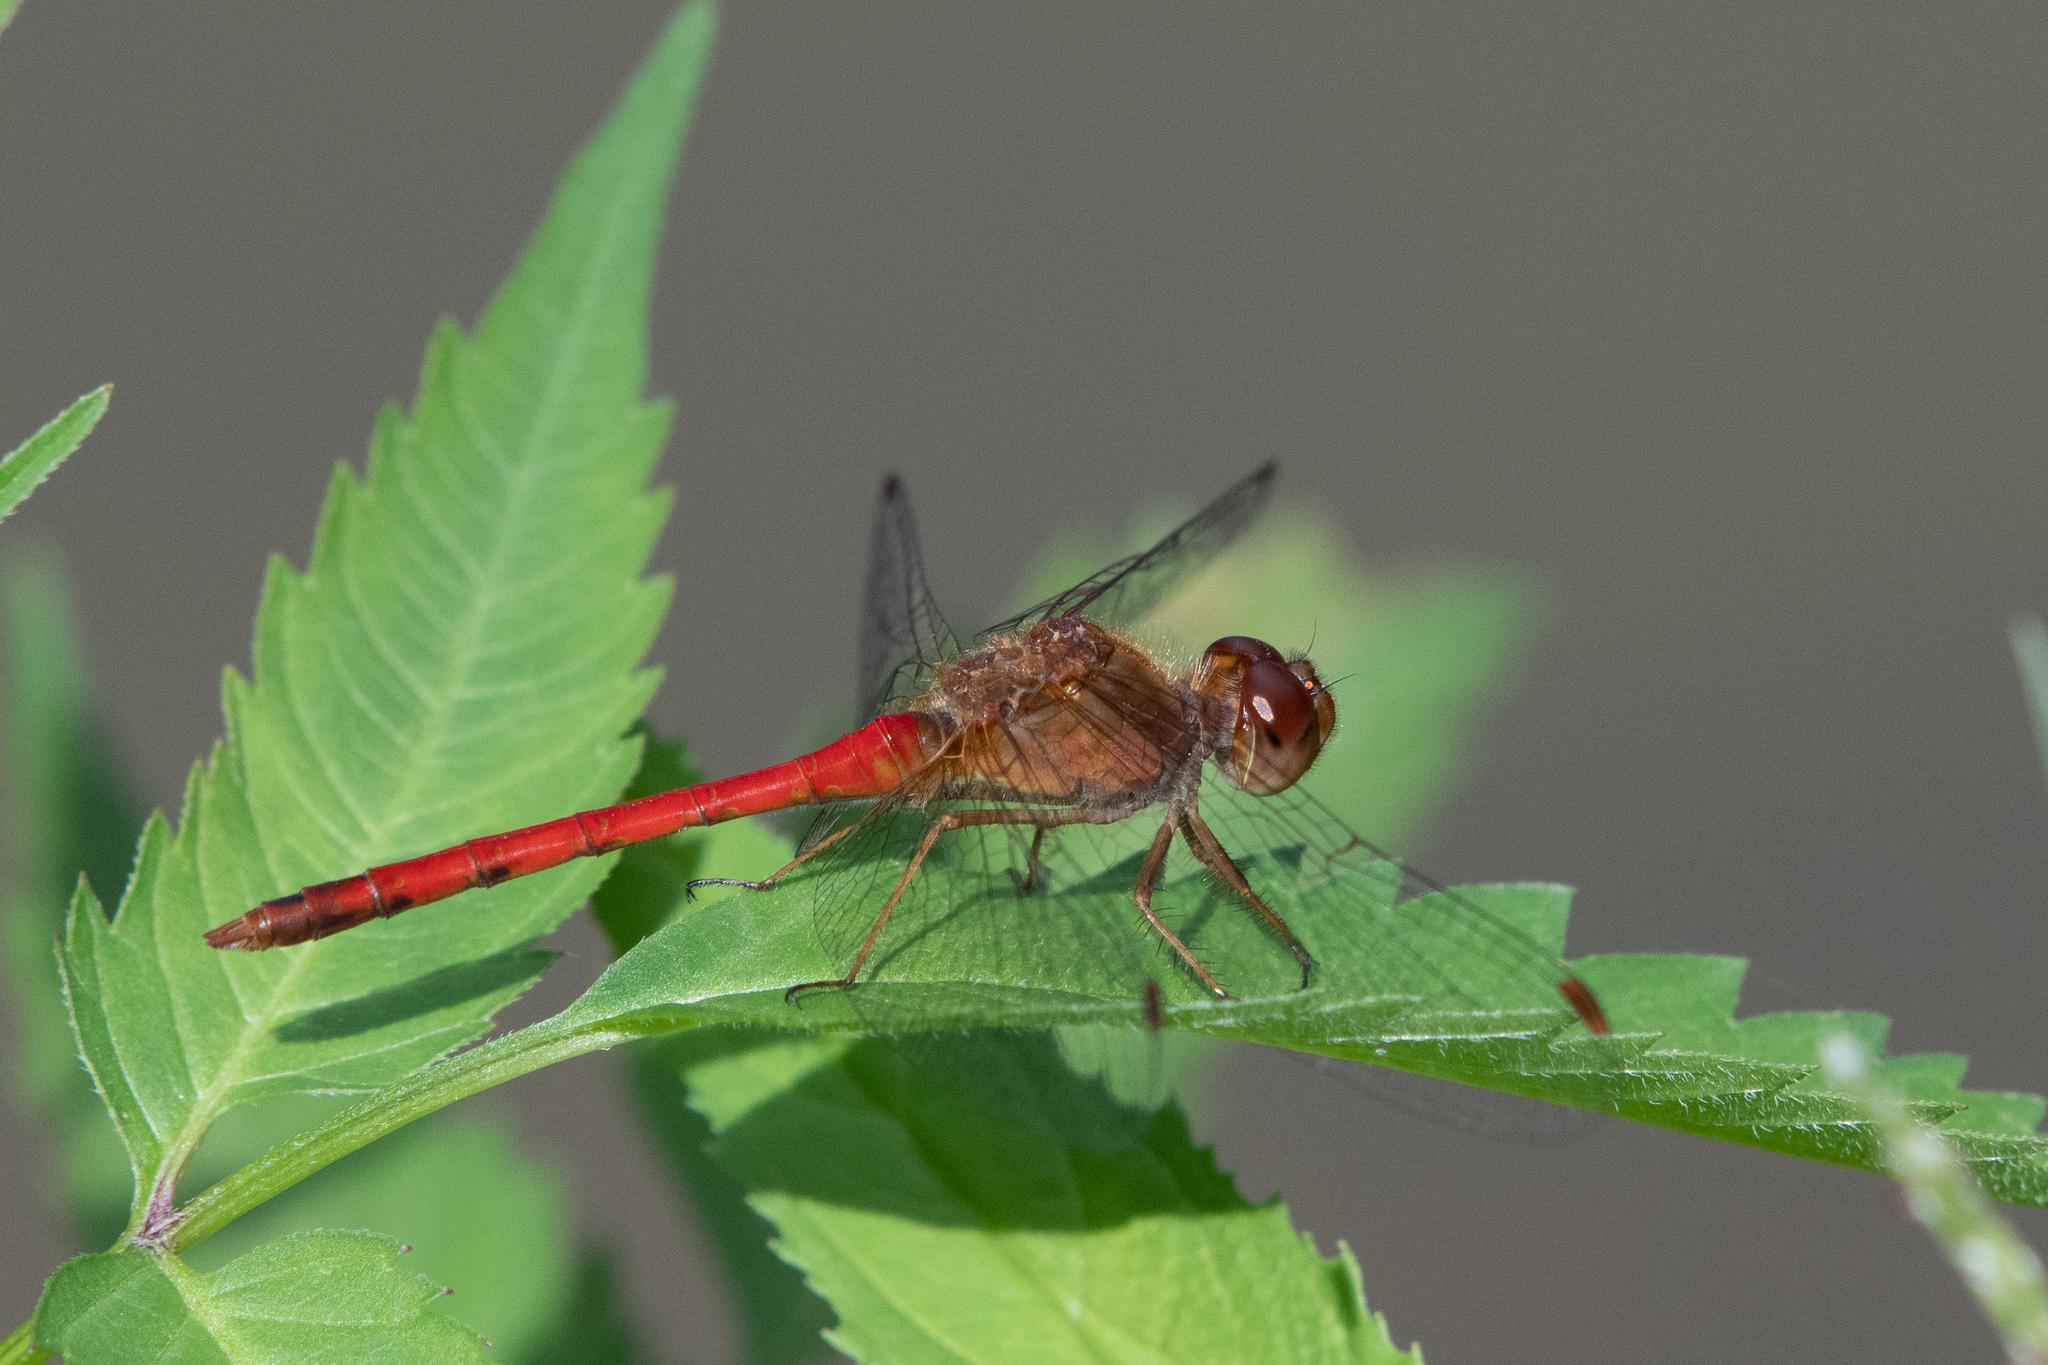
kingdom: Animalia
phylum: Arthropoda
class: Insecta
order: Odonata
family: Libellulidae
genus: Sympetrum
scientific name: Sympetrum vicinum
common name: Autumn meadowhawk
